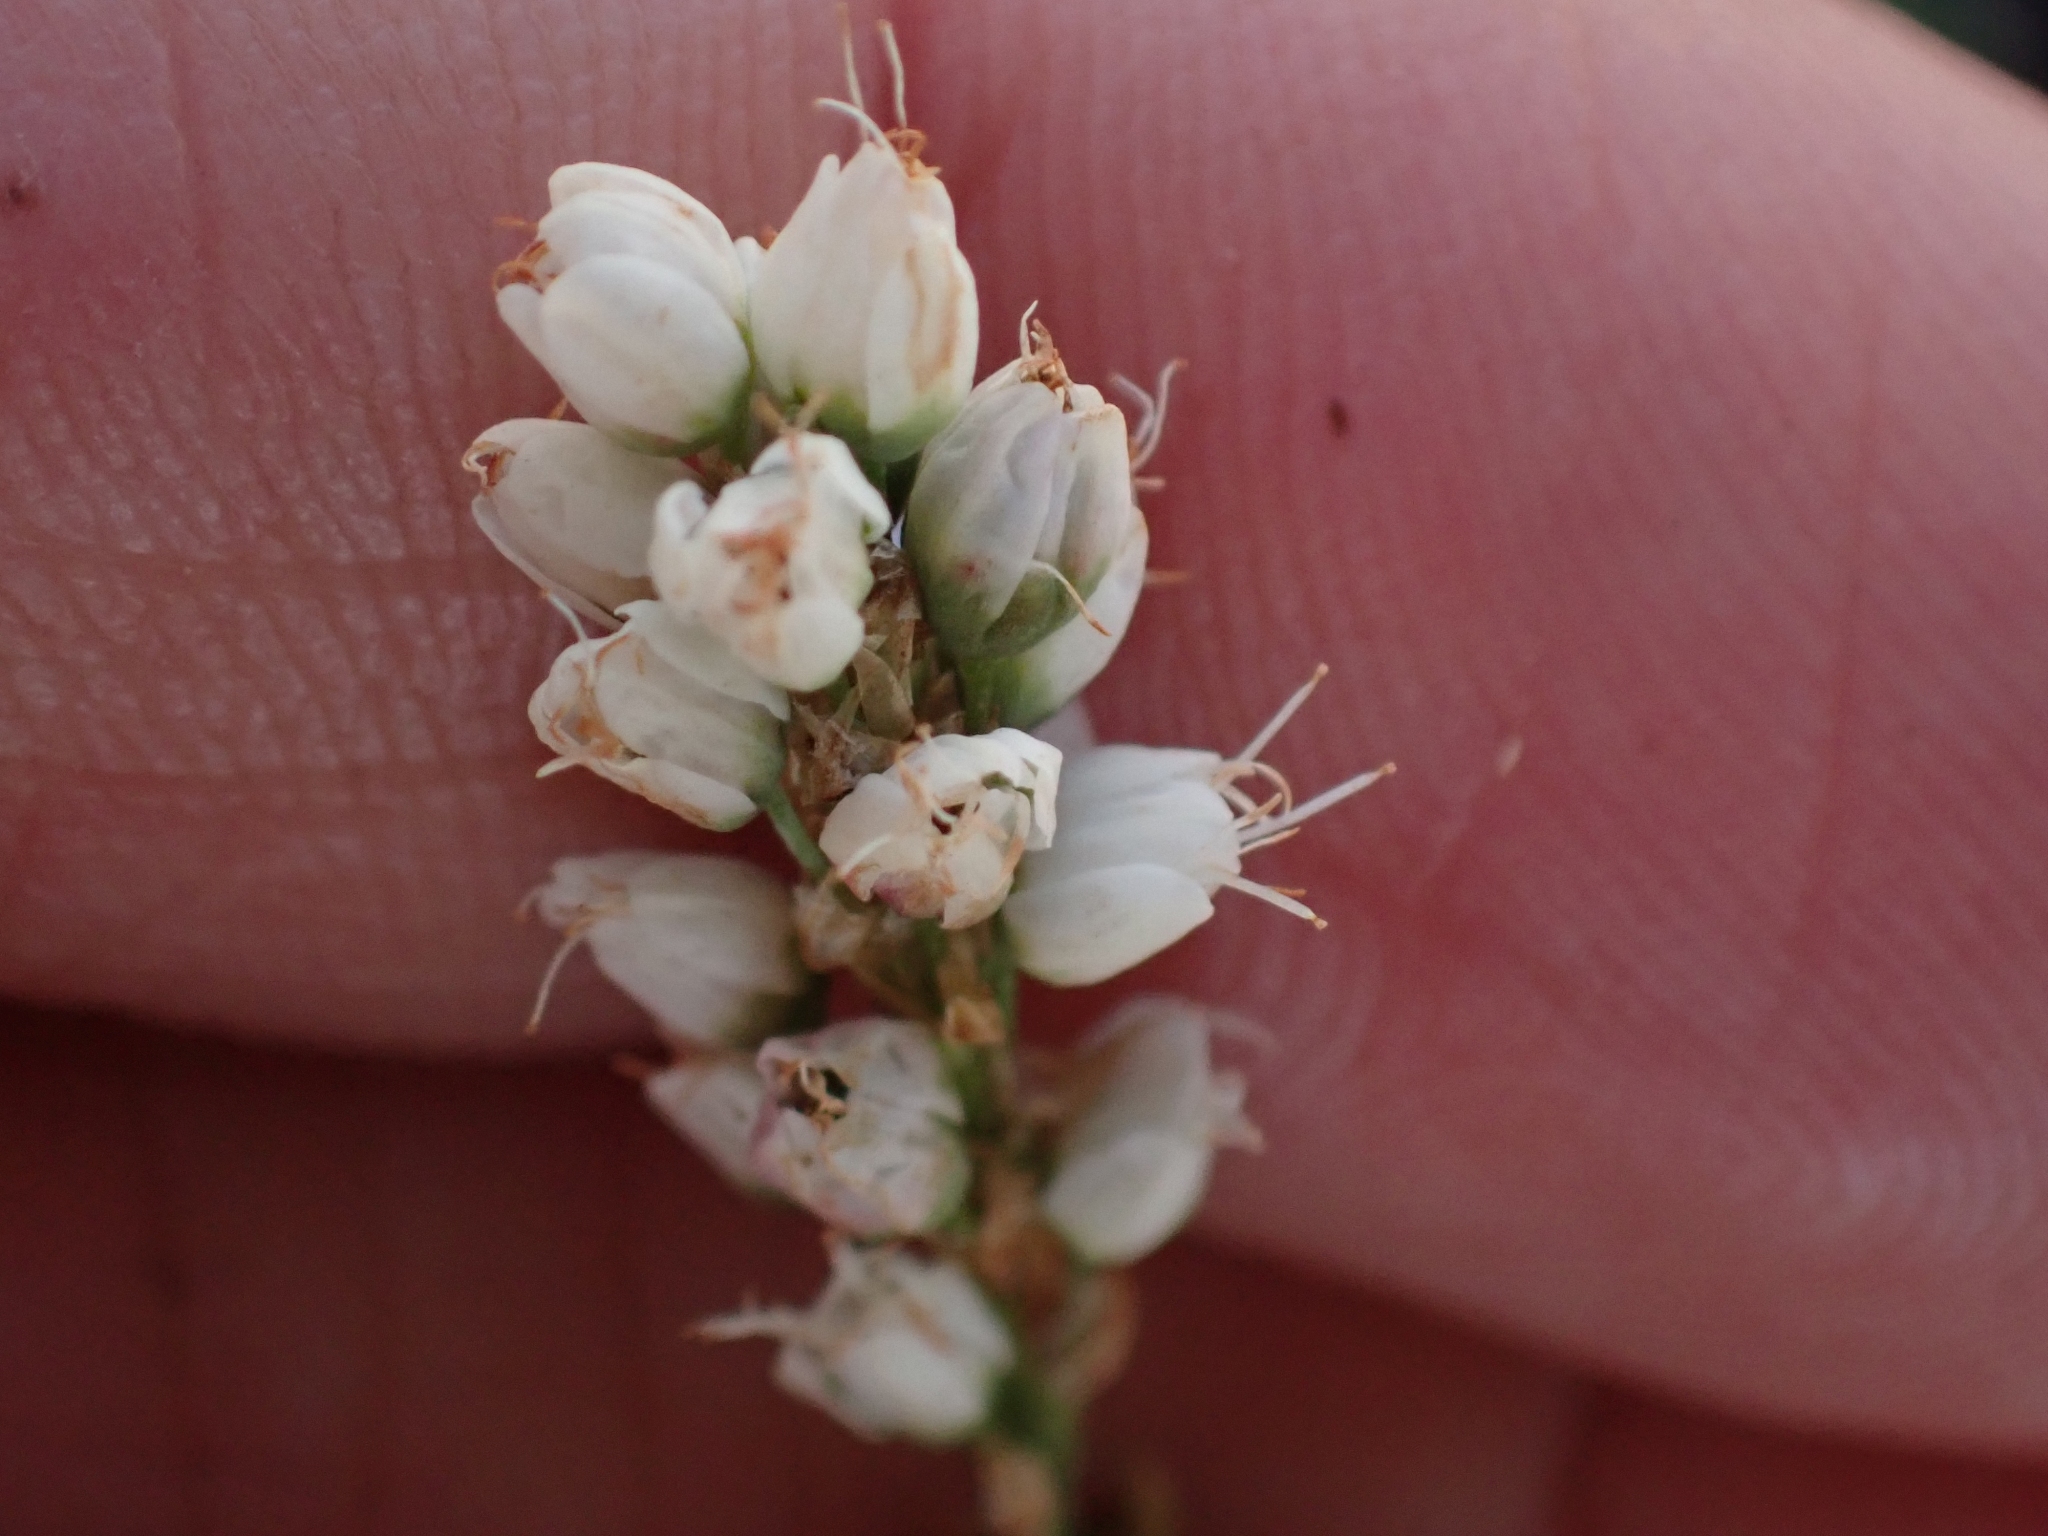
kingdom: Plantae
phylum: Tracheophyta
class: Magnoliopsida
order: Caryophyllales
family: Polygonaceae
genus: Bistorta
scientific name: Bistorta vivipara
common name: Alpine bistort
